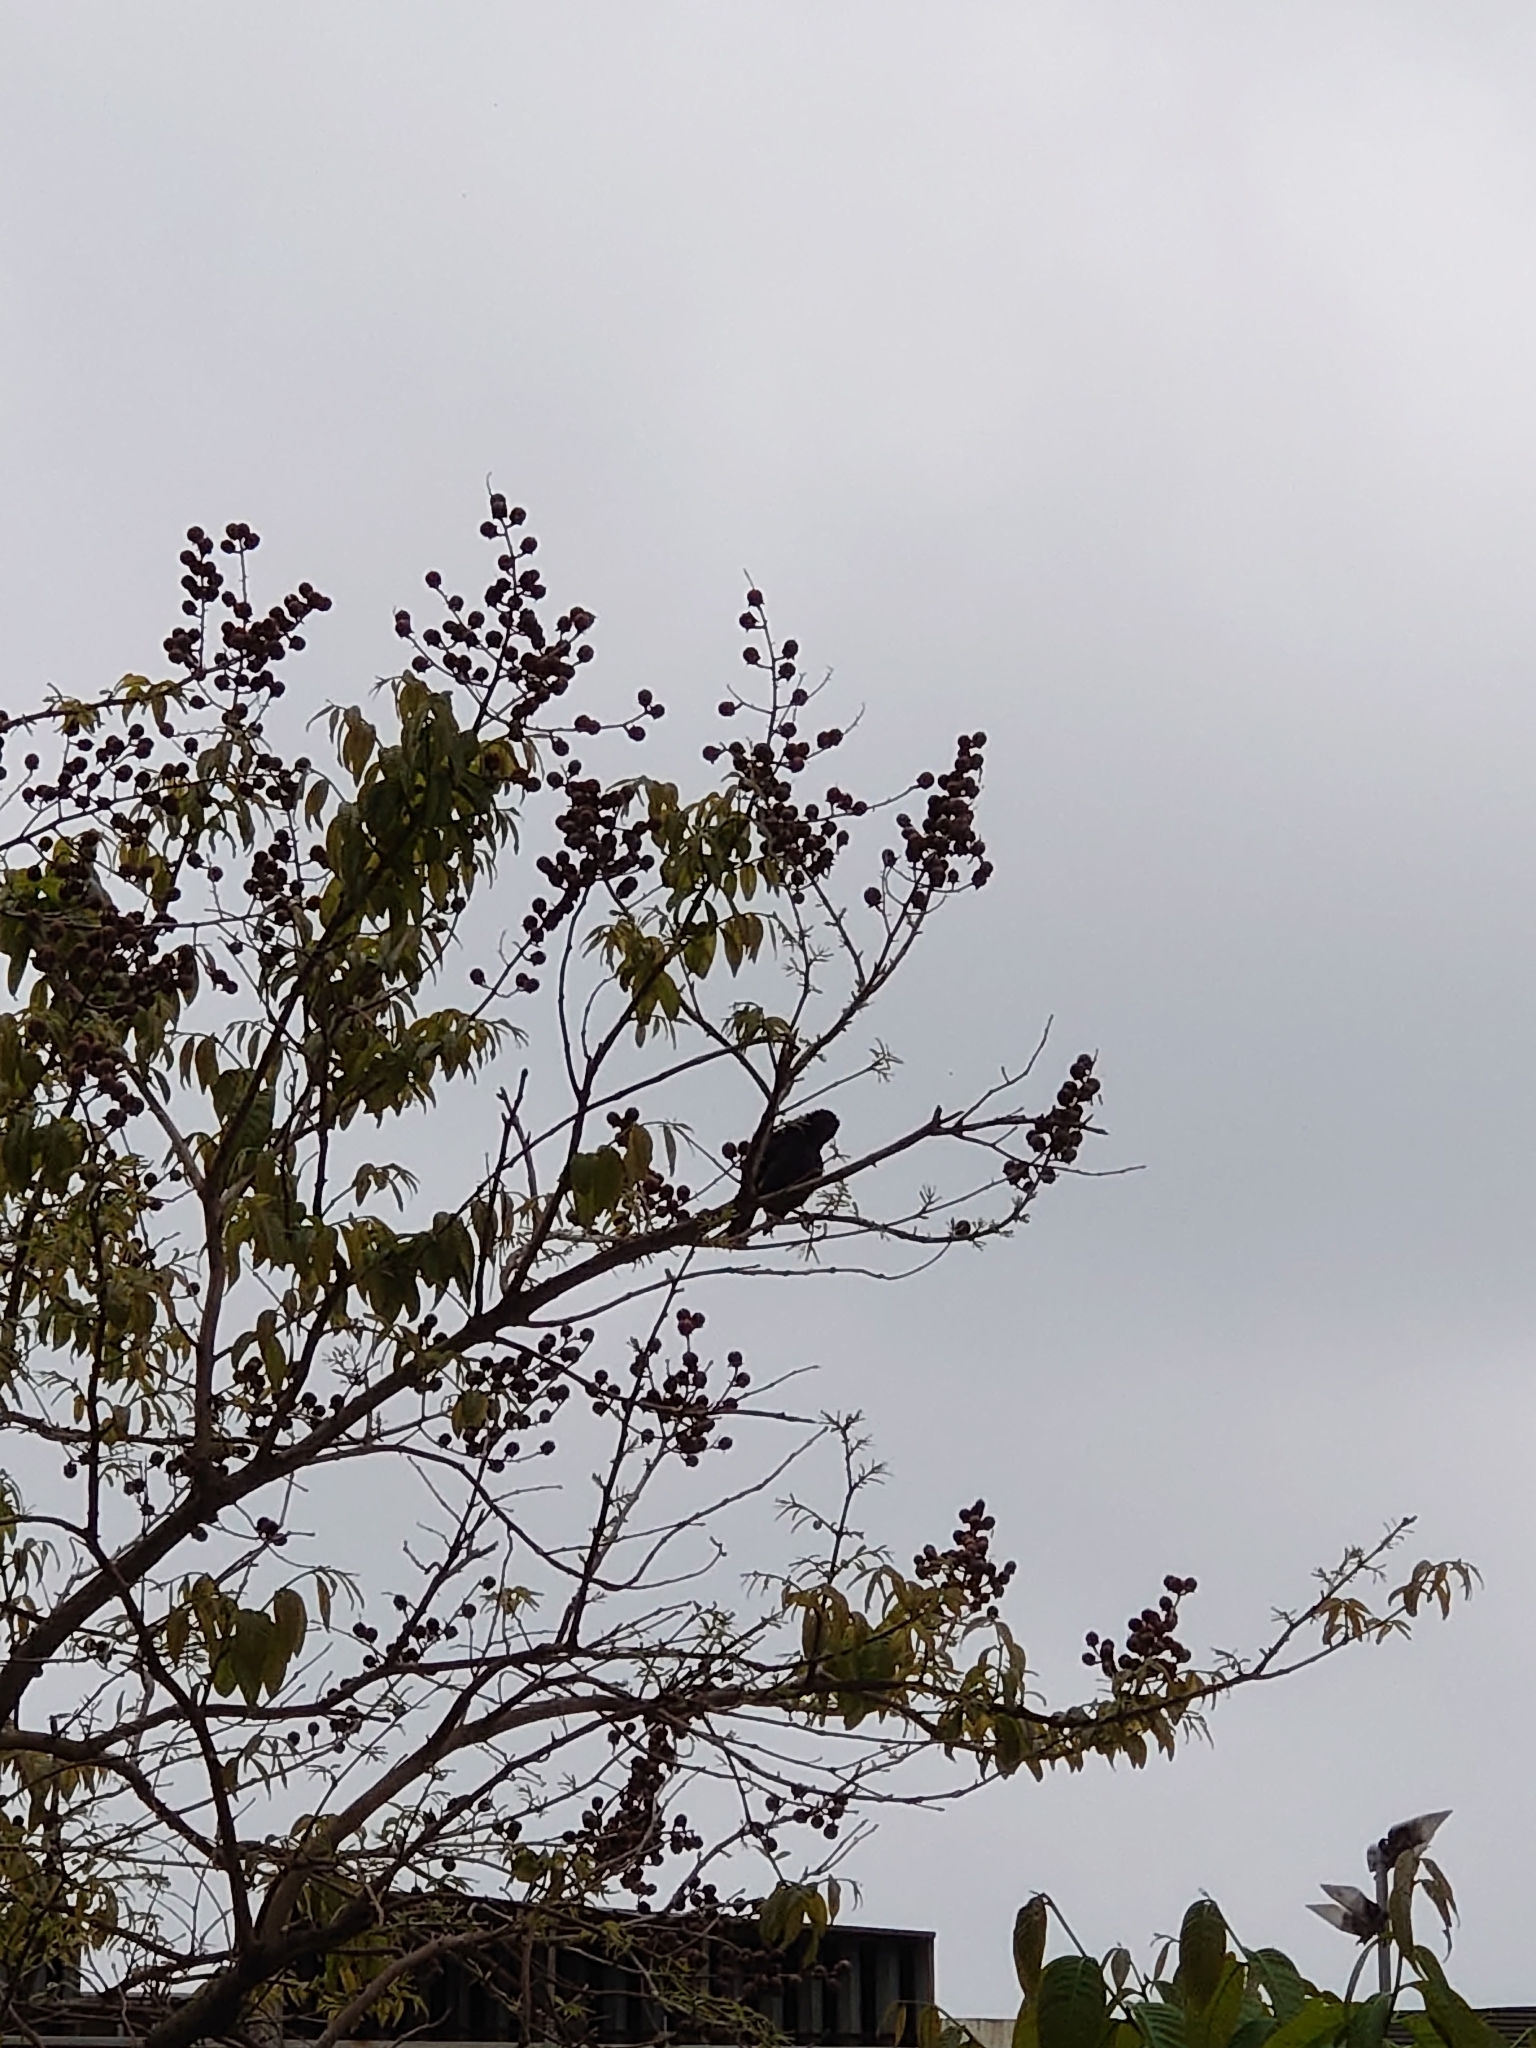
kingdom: Animalia
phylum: Chordata
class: Aves
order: Passeriformes
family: Sturnidae
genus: Acridotheres
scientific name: Acridotheres cristatellus
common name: Crested myna
